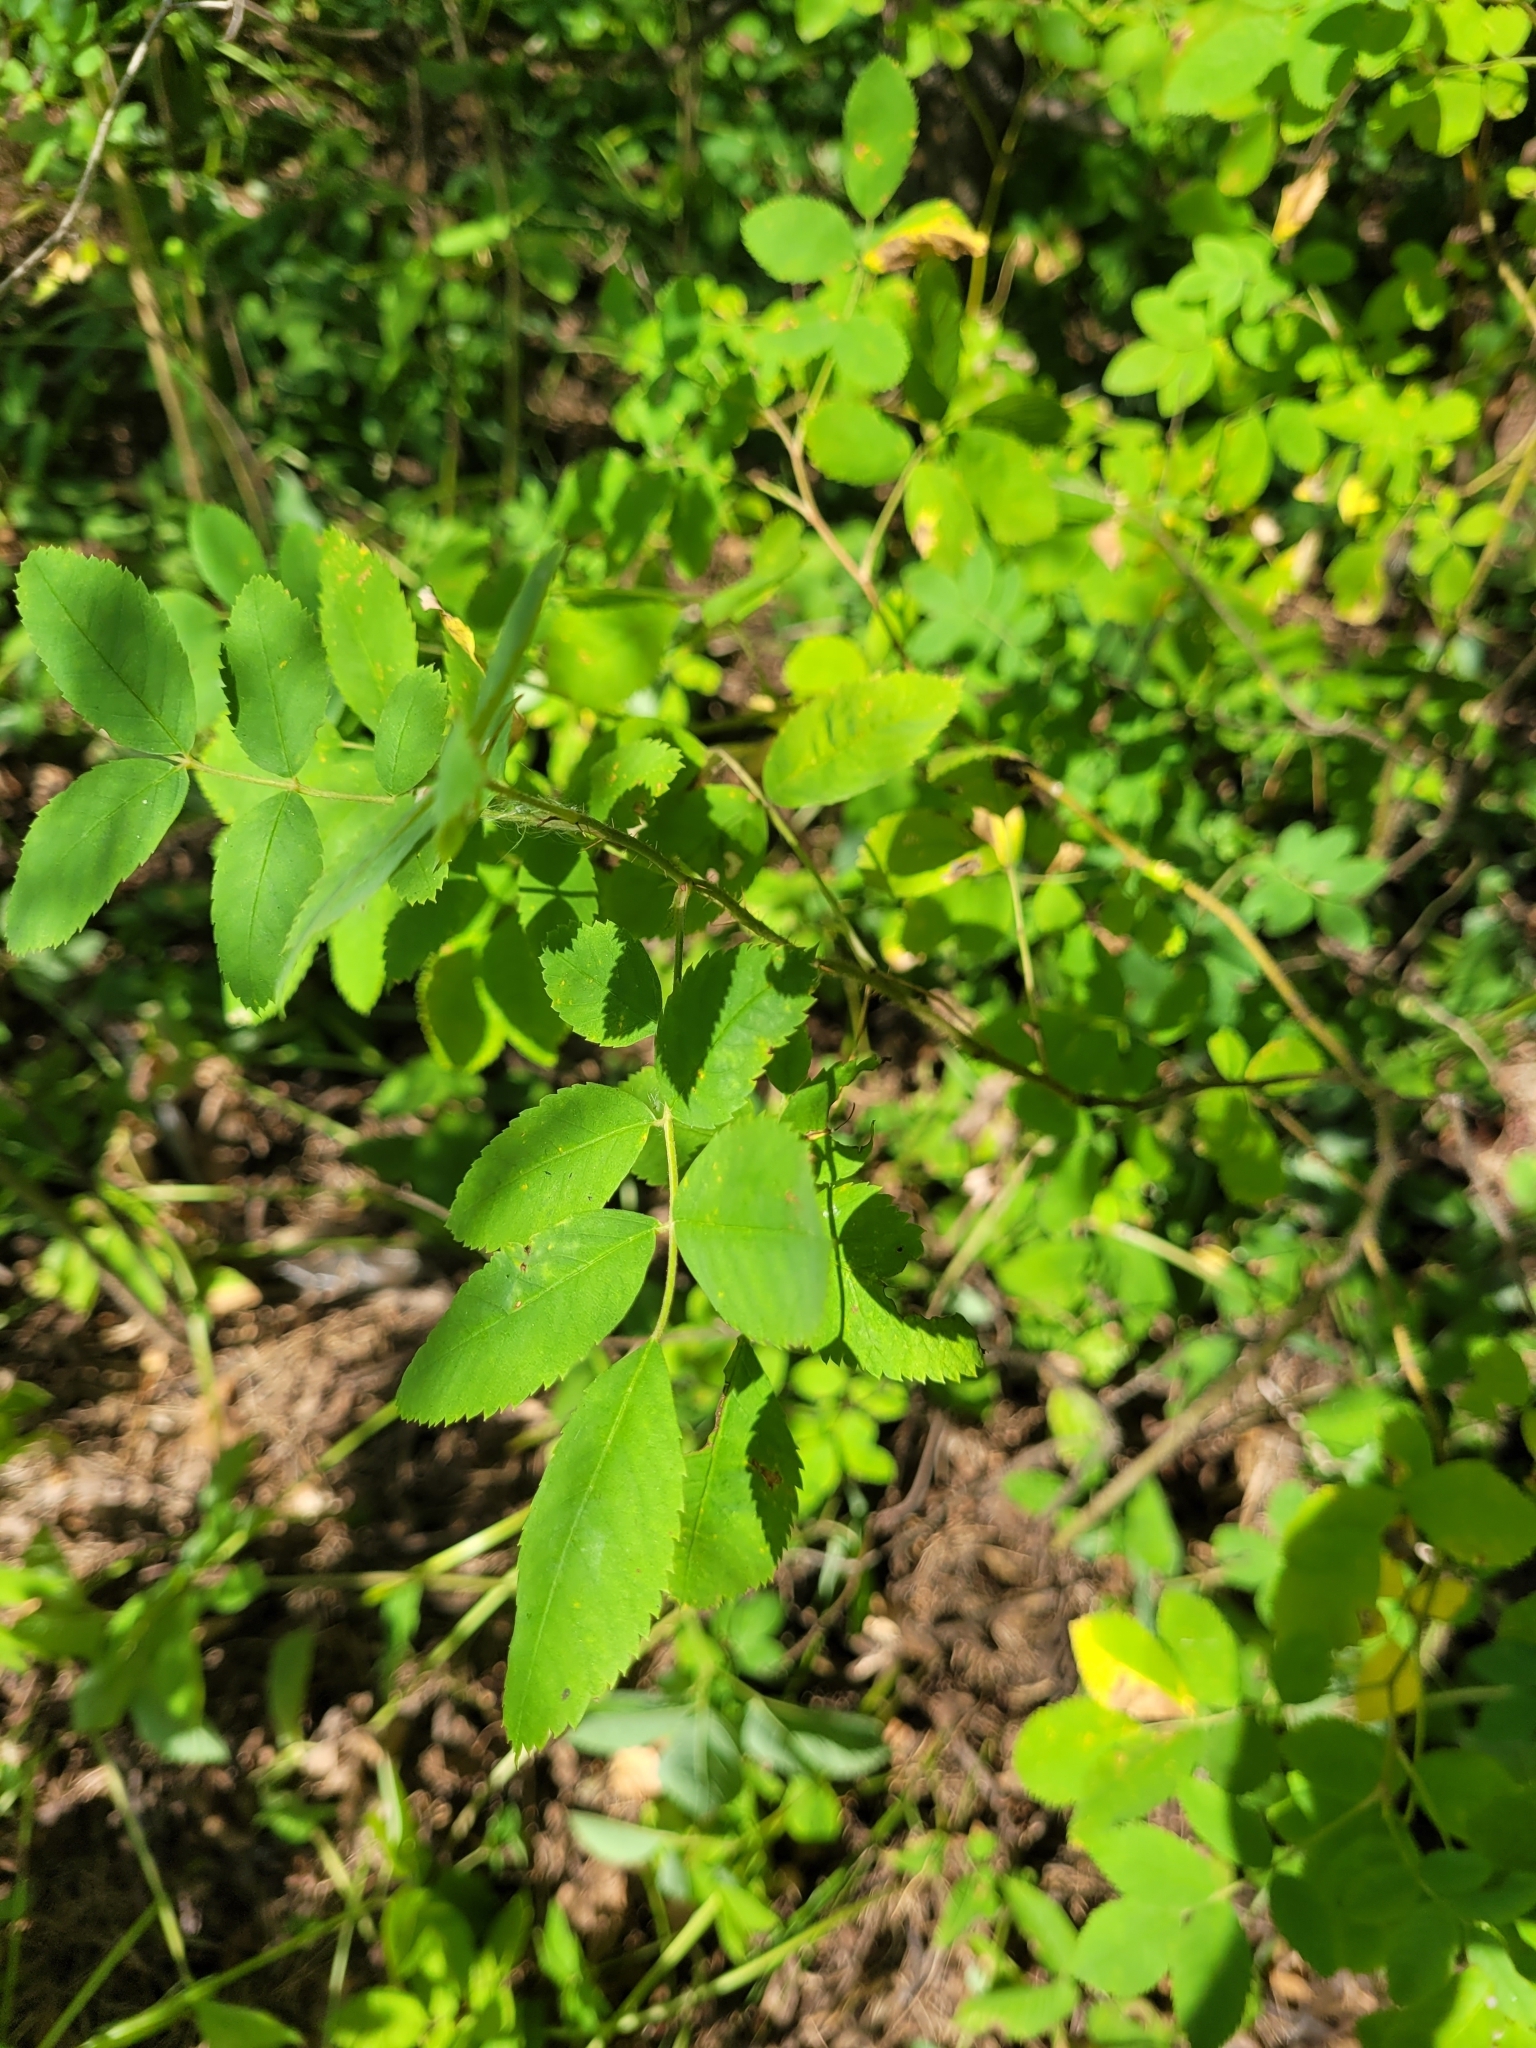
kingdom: Plantae
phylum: Tracheophyta
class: Magnoliopsida
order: Rosales
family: Rosaceae
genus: Rosa
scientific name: Rosa viarum
